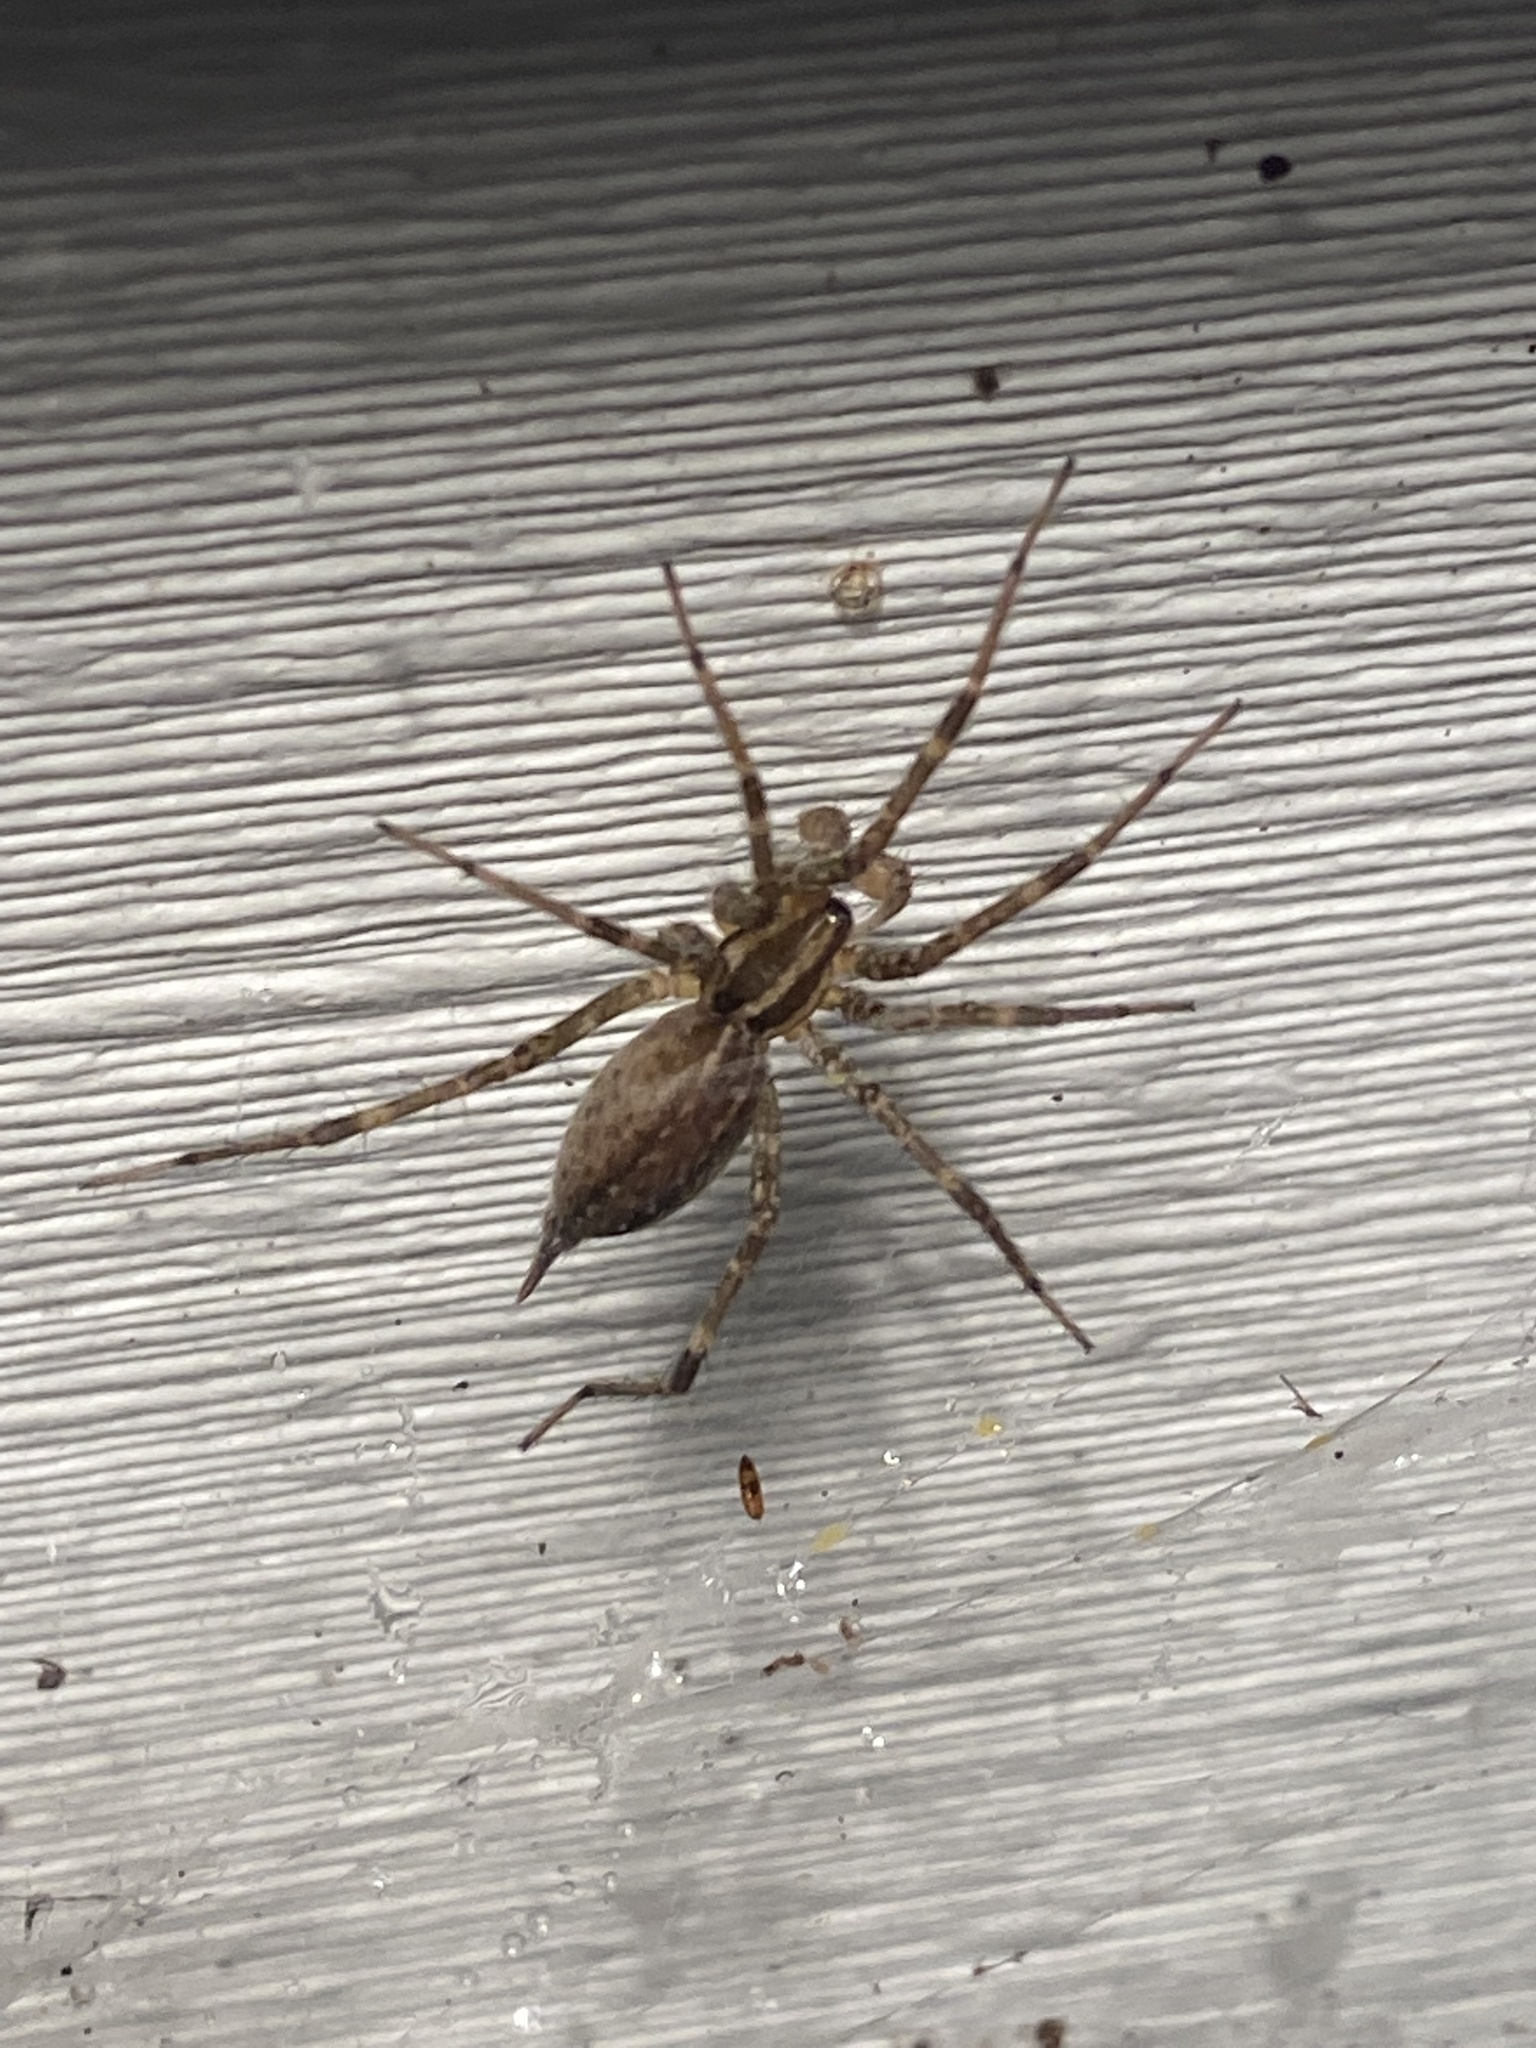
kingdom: Animalia
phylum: Arthropoda
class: Arachnida
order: Araneae
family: Agelenidae
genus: Agelenopsis
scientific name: Agelenopsis
